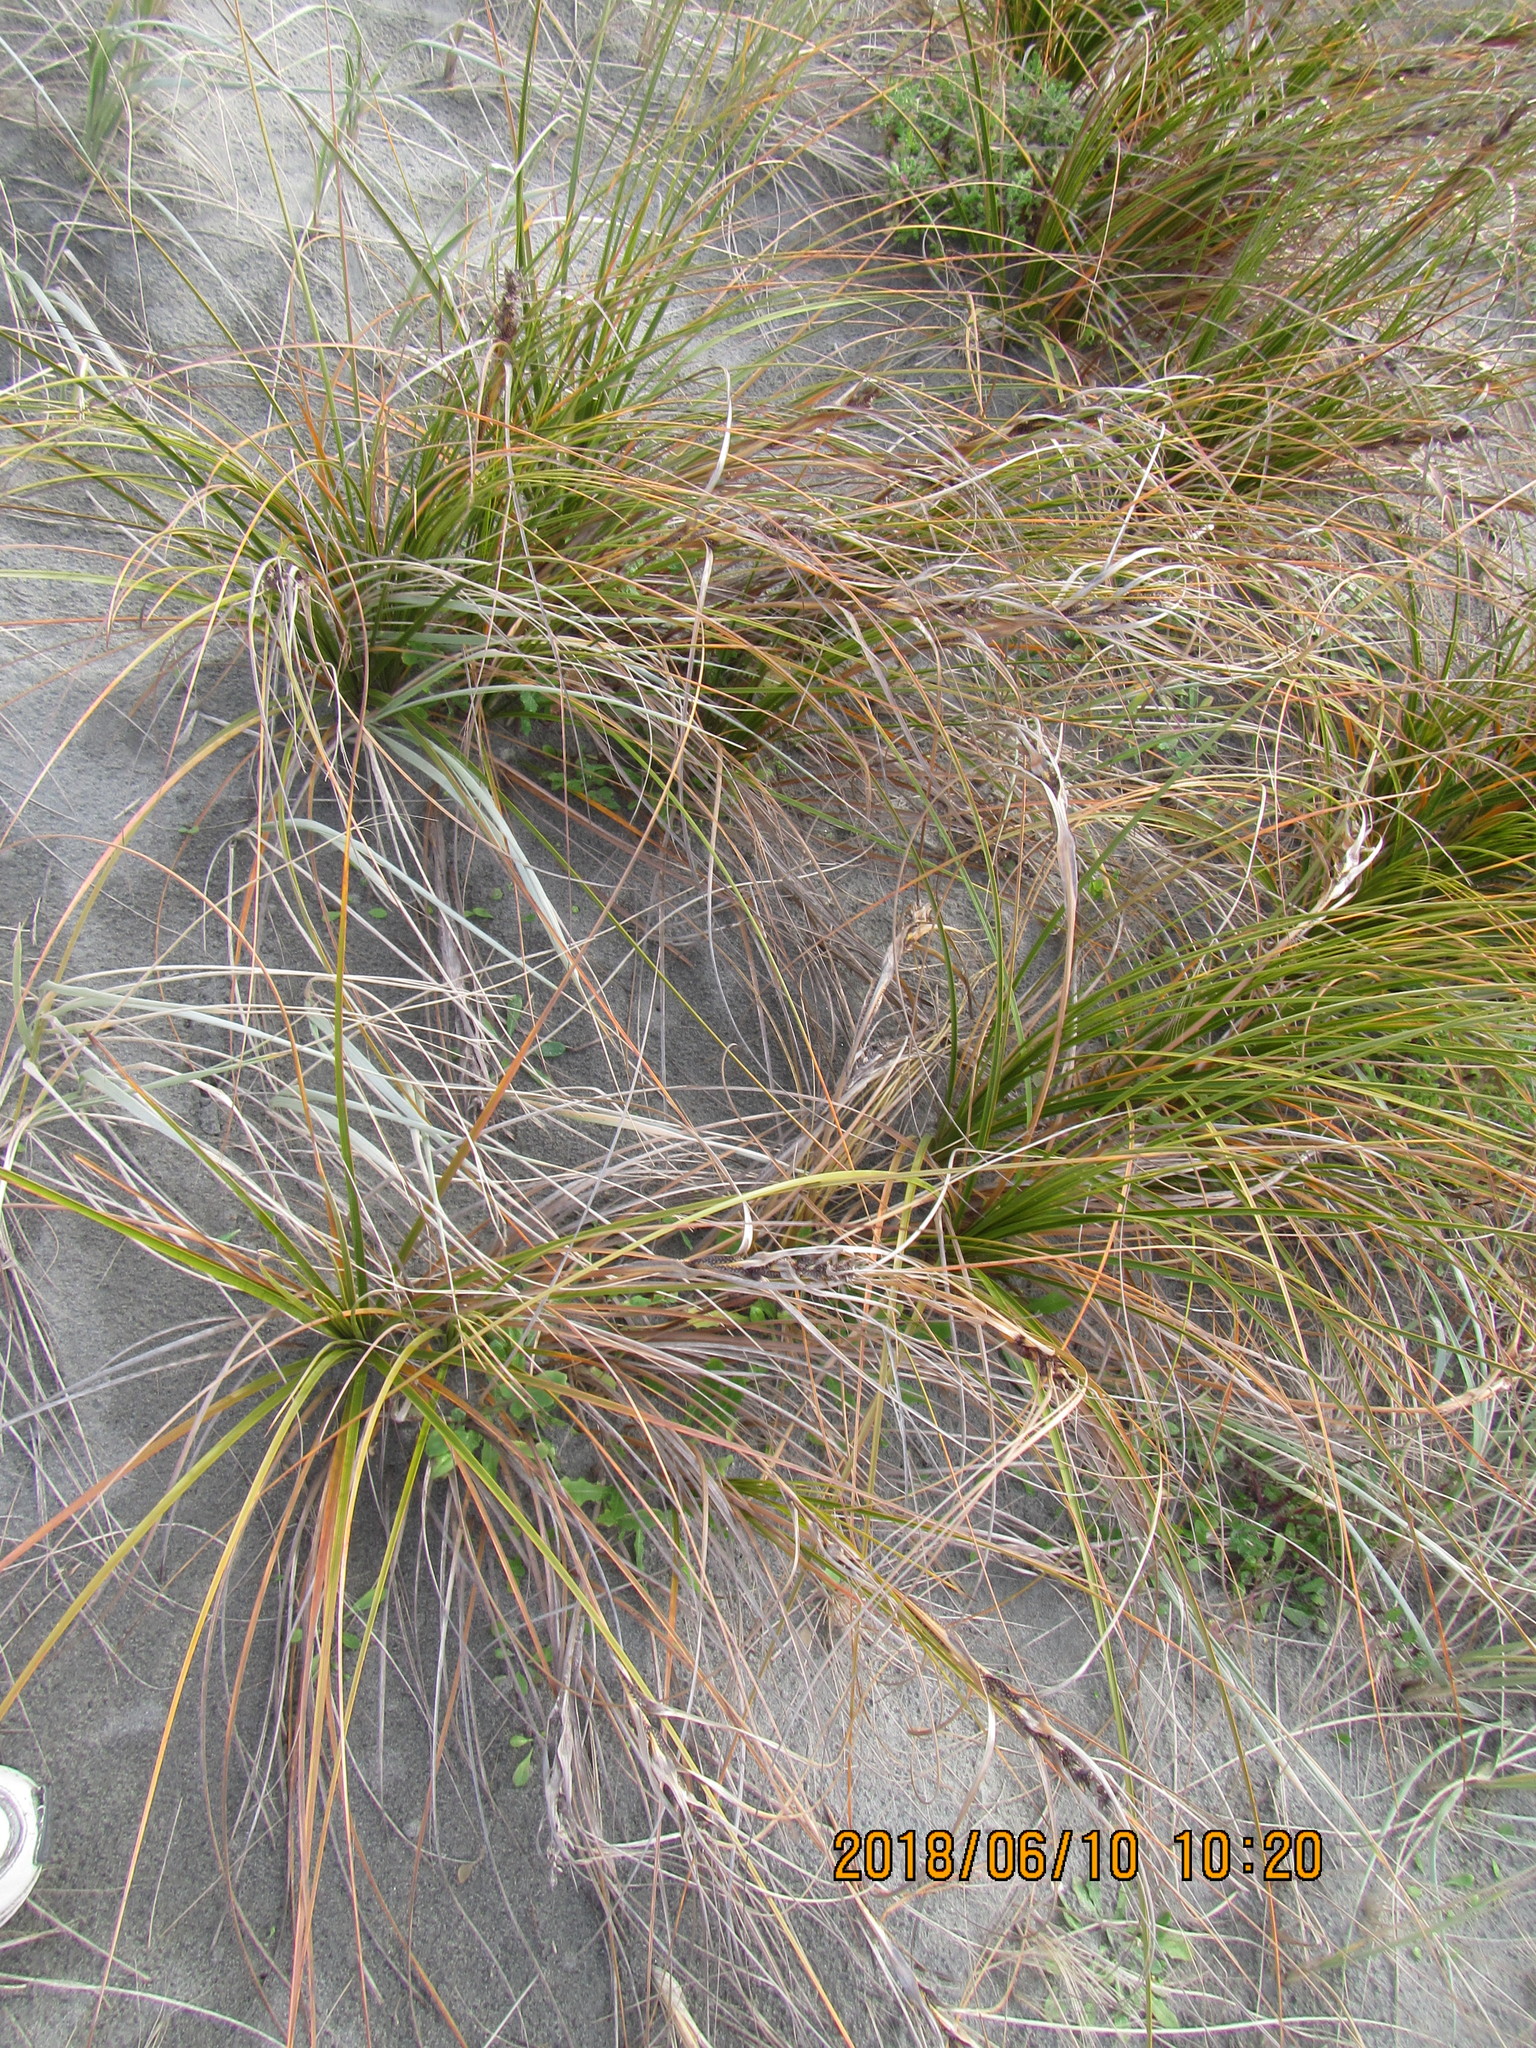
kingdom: Plantae
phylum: Tracheophyta
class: Liliopsida
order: Poales
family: Cyperaceae
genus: Ficinia
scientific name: Ficinia spiralis
